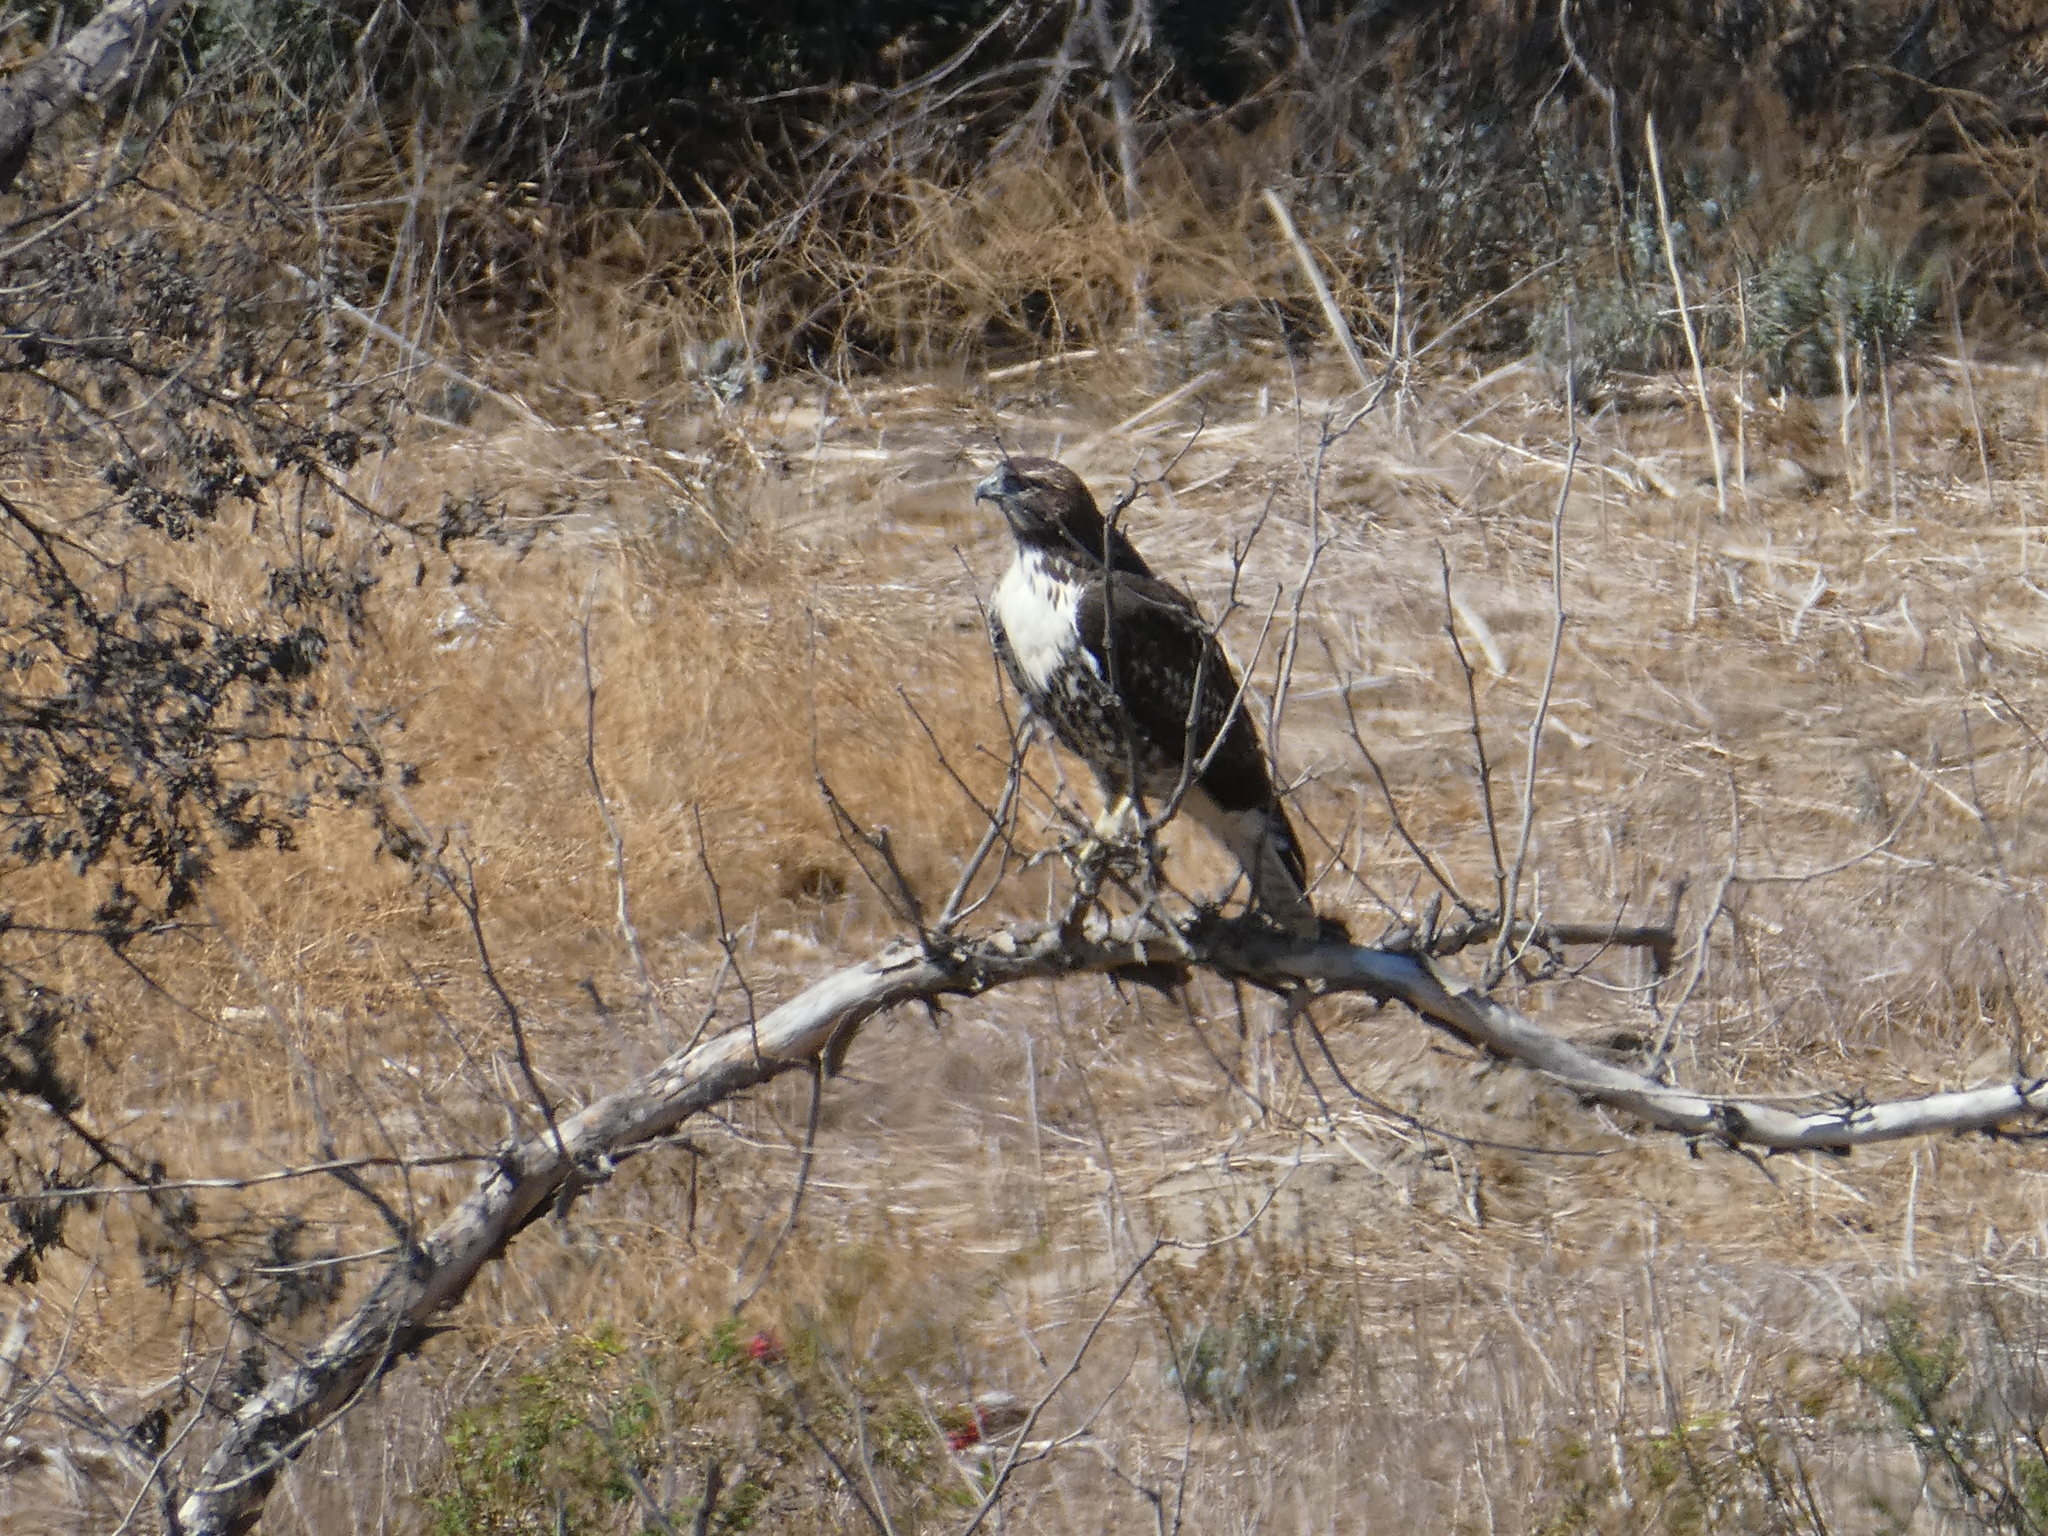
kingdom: Animalia
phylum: Chordata
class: Aves
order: Accipitriformes
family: Accipitridae
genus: Buteo
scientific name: Buteo jamaicensis
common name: Red-tailed hawk
